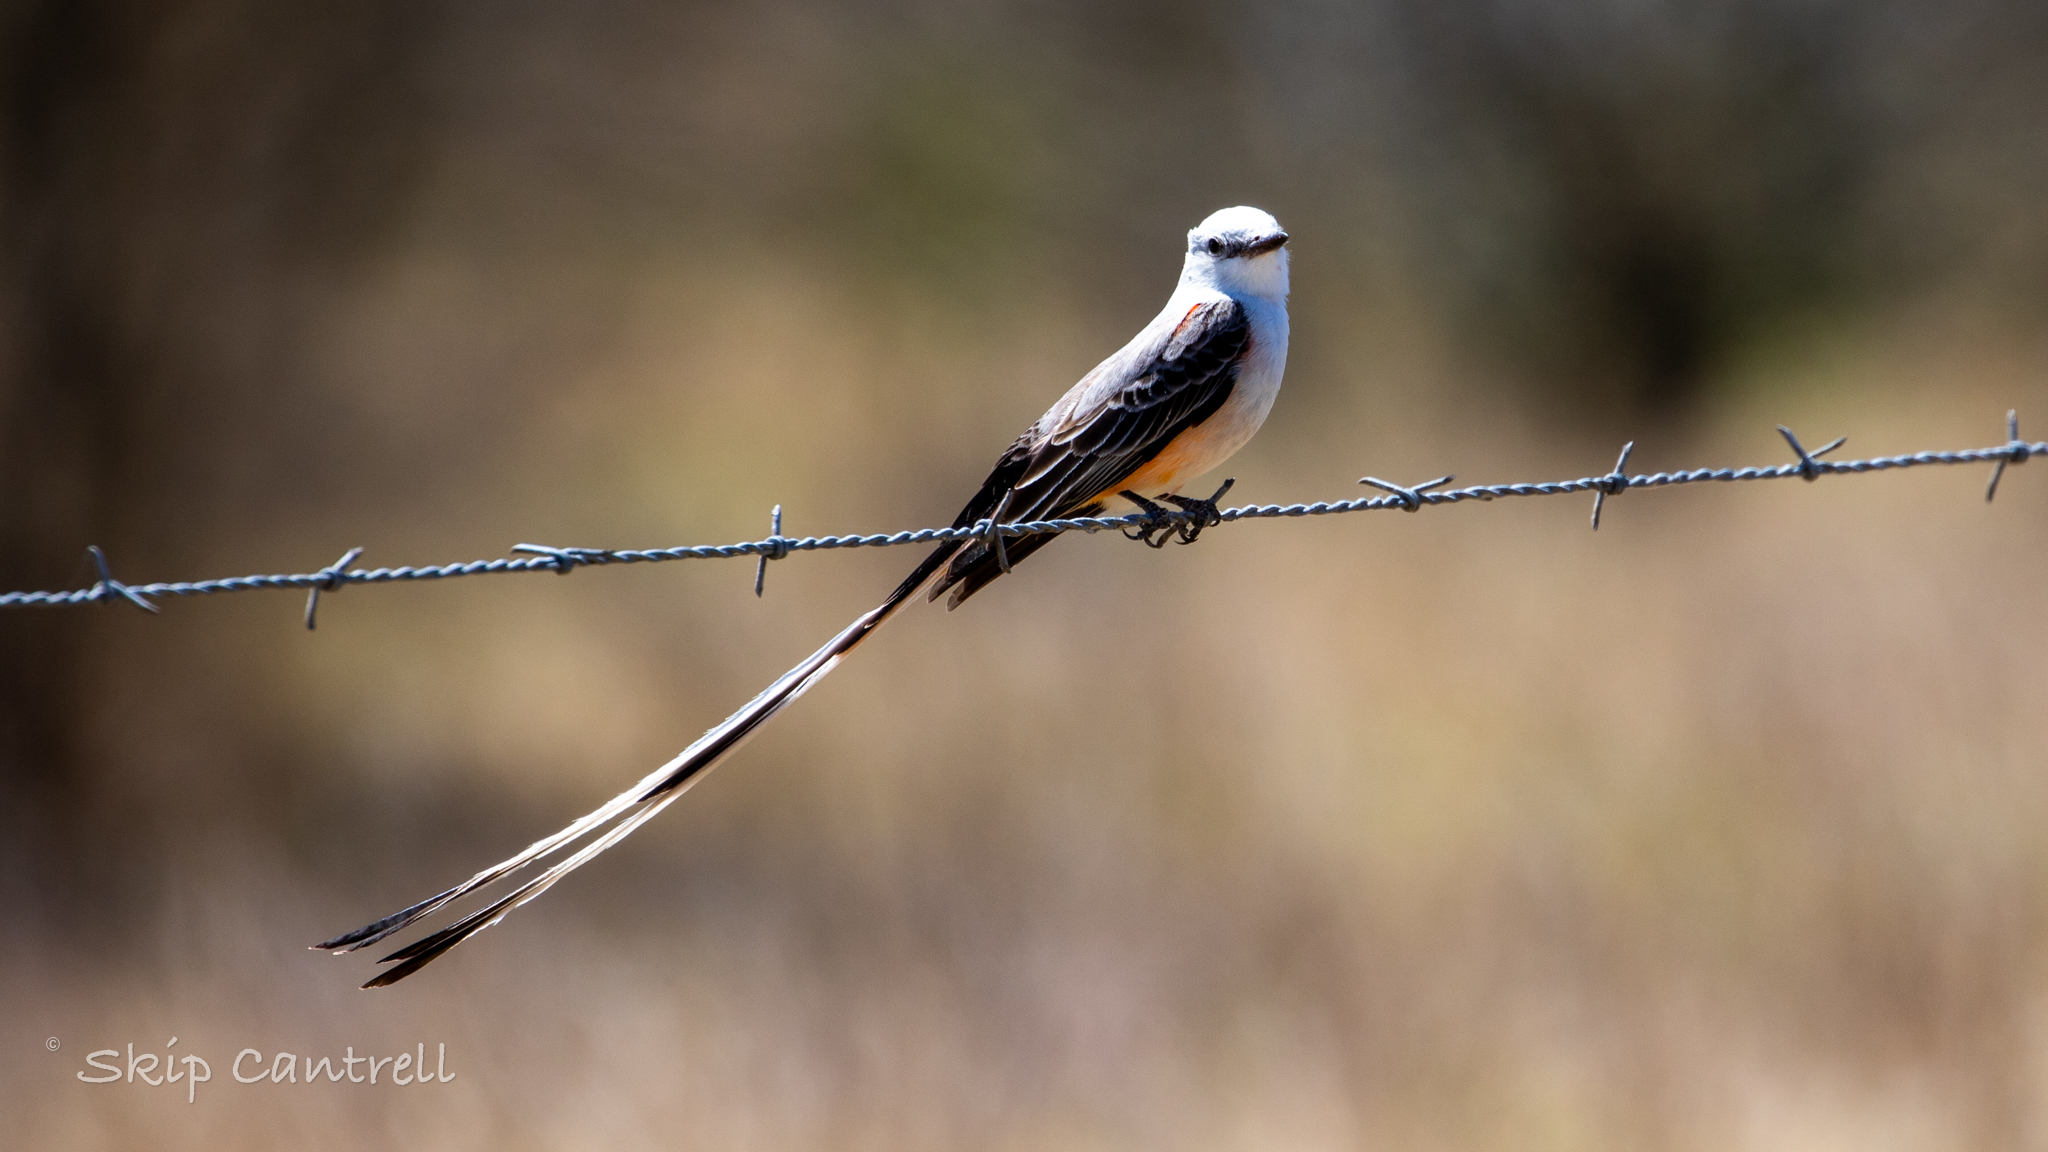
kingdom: Animalia
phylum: Chordata
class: Aves
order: Passeriformes
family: Tyrannidae
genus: Tyrannus
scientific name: Tyrannus forficatus
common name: Scissor-tailed flycatcher
